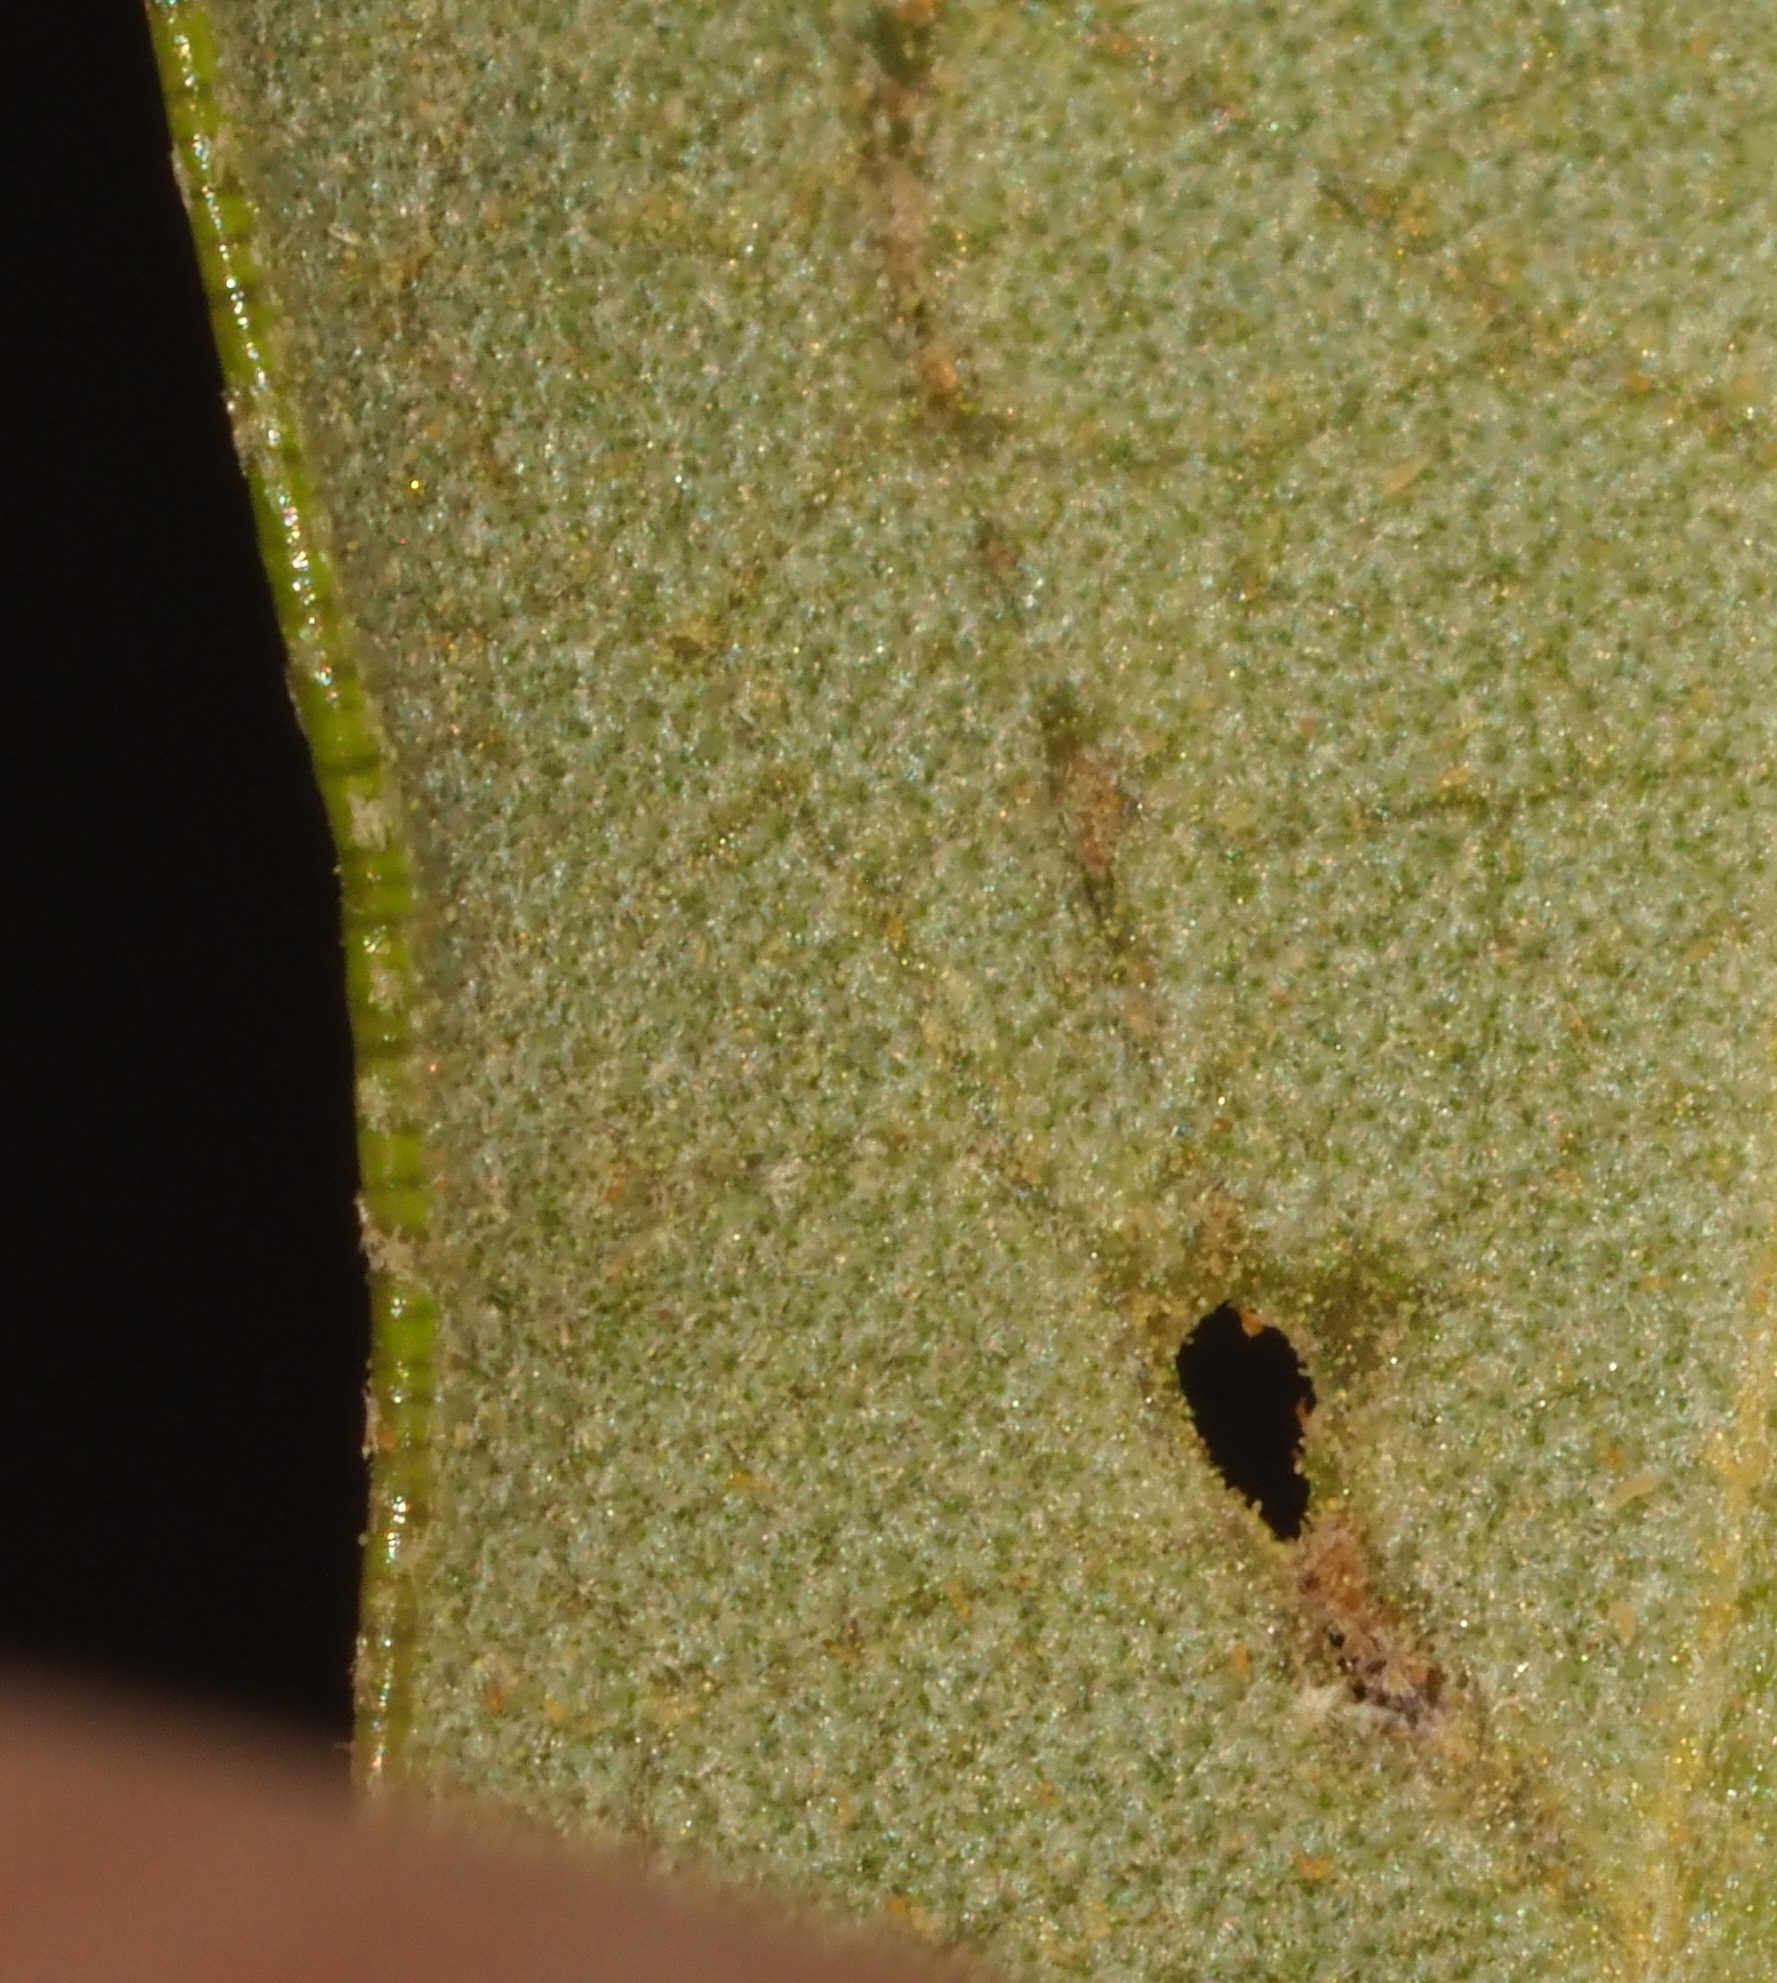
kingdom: Animalia
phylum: Arthropoda
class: Insecta
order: Hymenoptera
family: Cynipidae
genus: Belonocnema
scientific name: Belonocnema kinseyi
